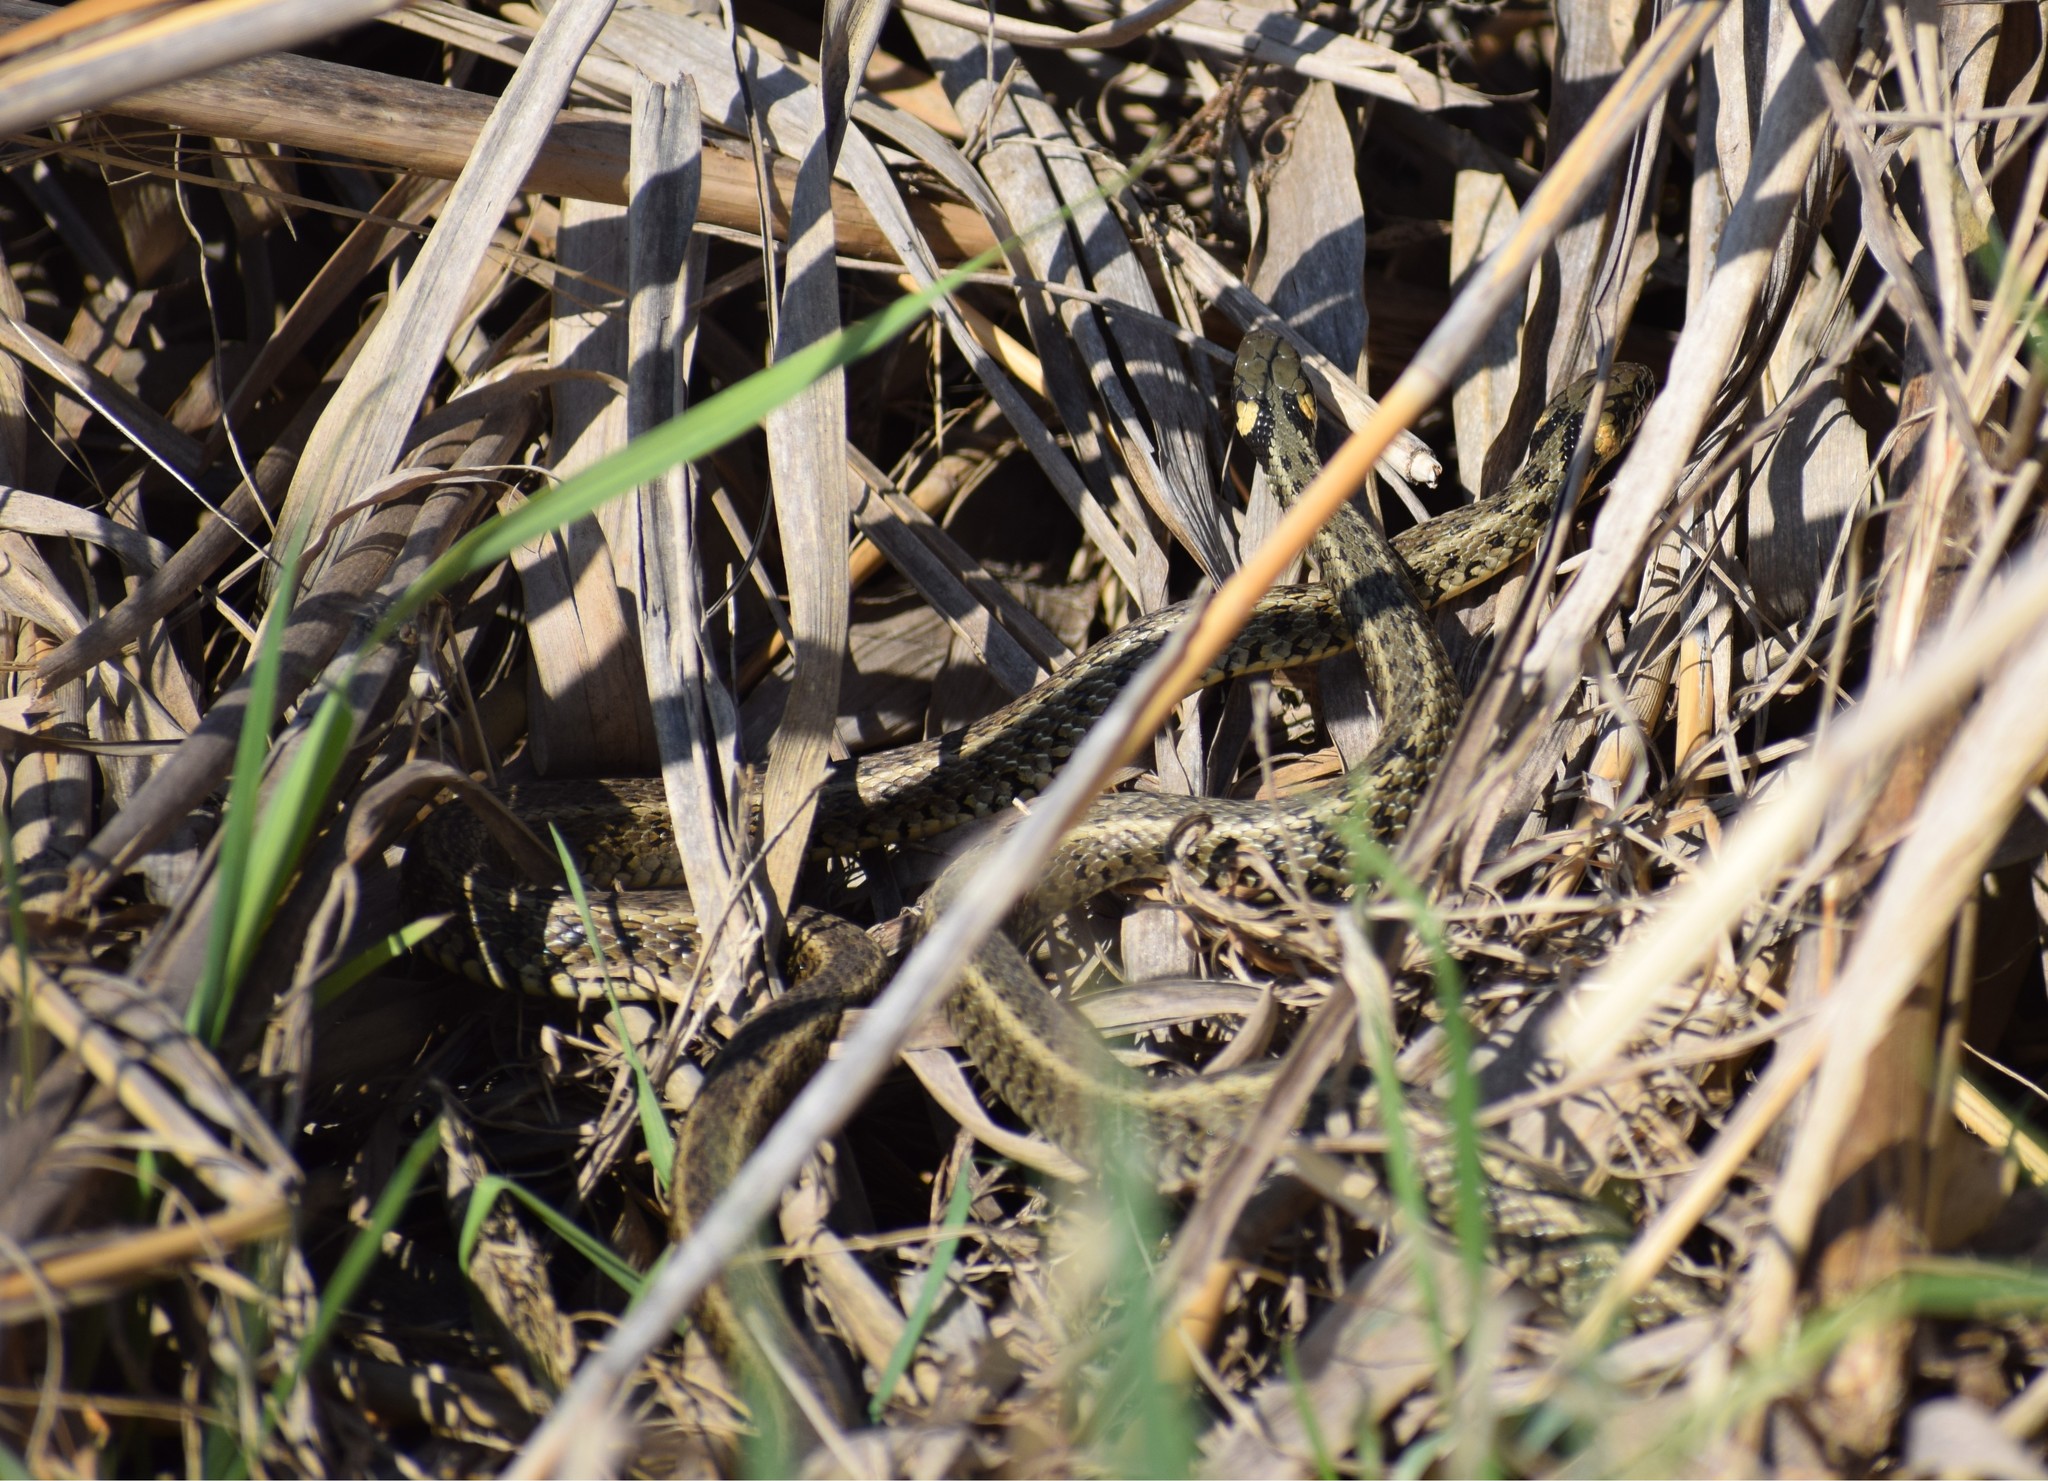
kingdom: Animalia
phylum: Chordata
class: Squamata
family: Colubridae
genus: Natrix
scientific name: Natrix natrix
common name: Grass snake
